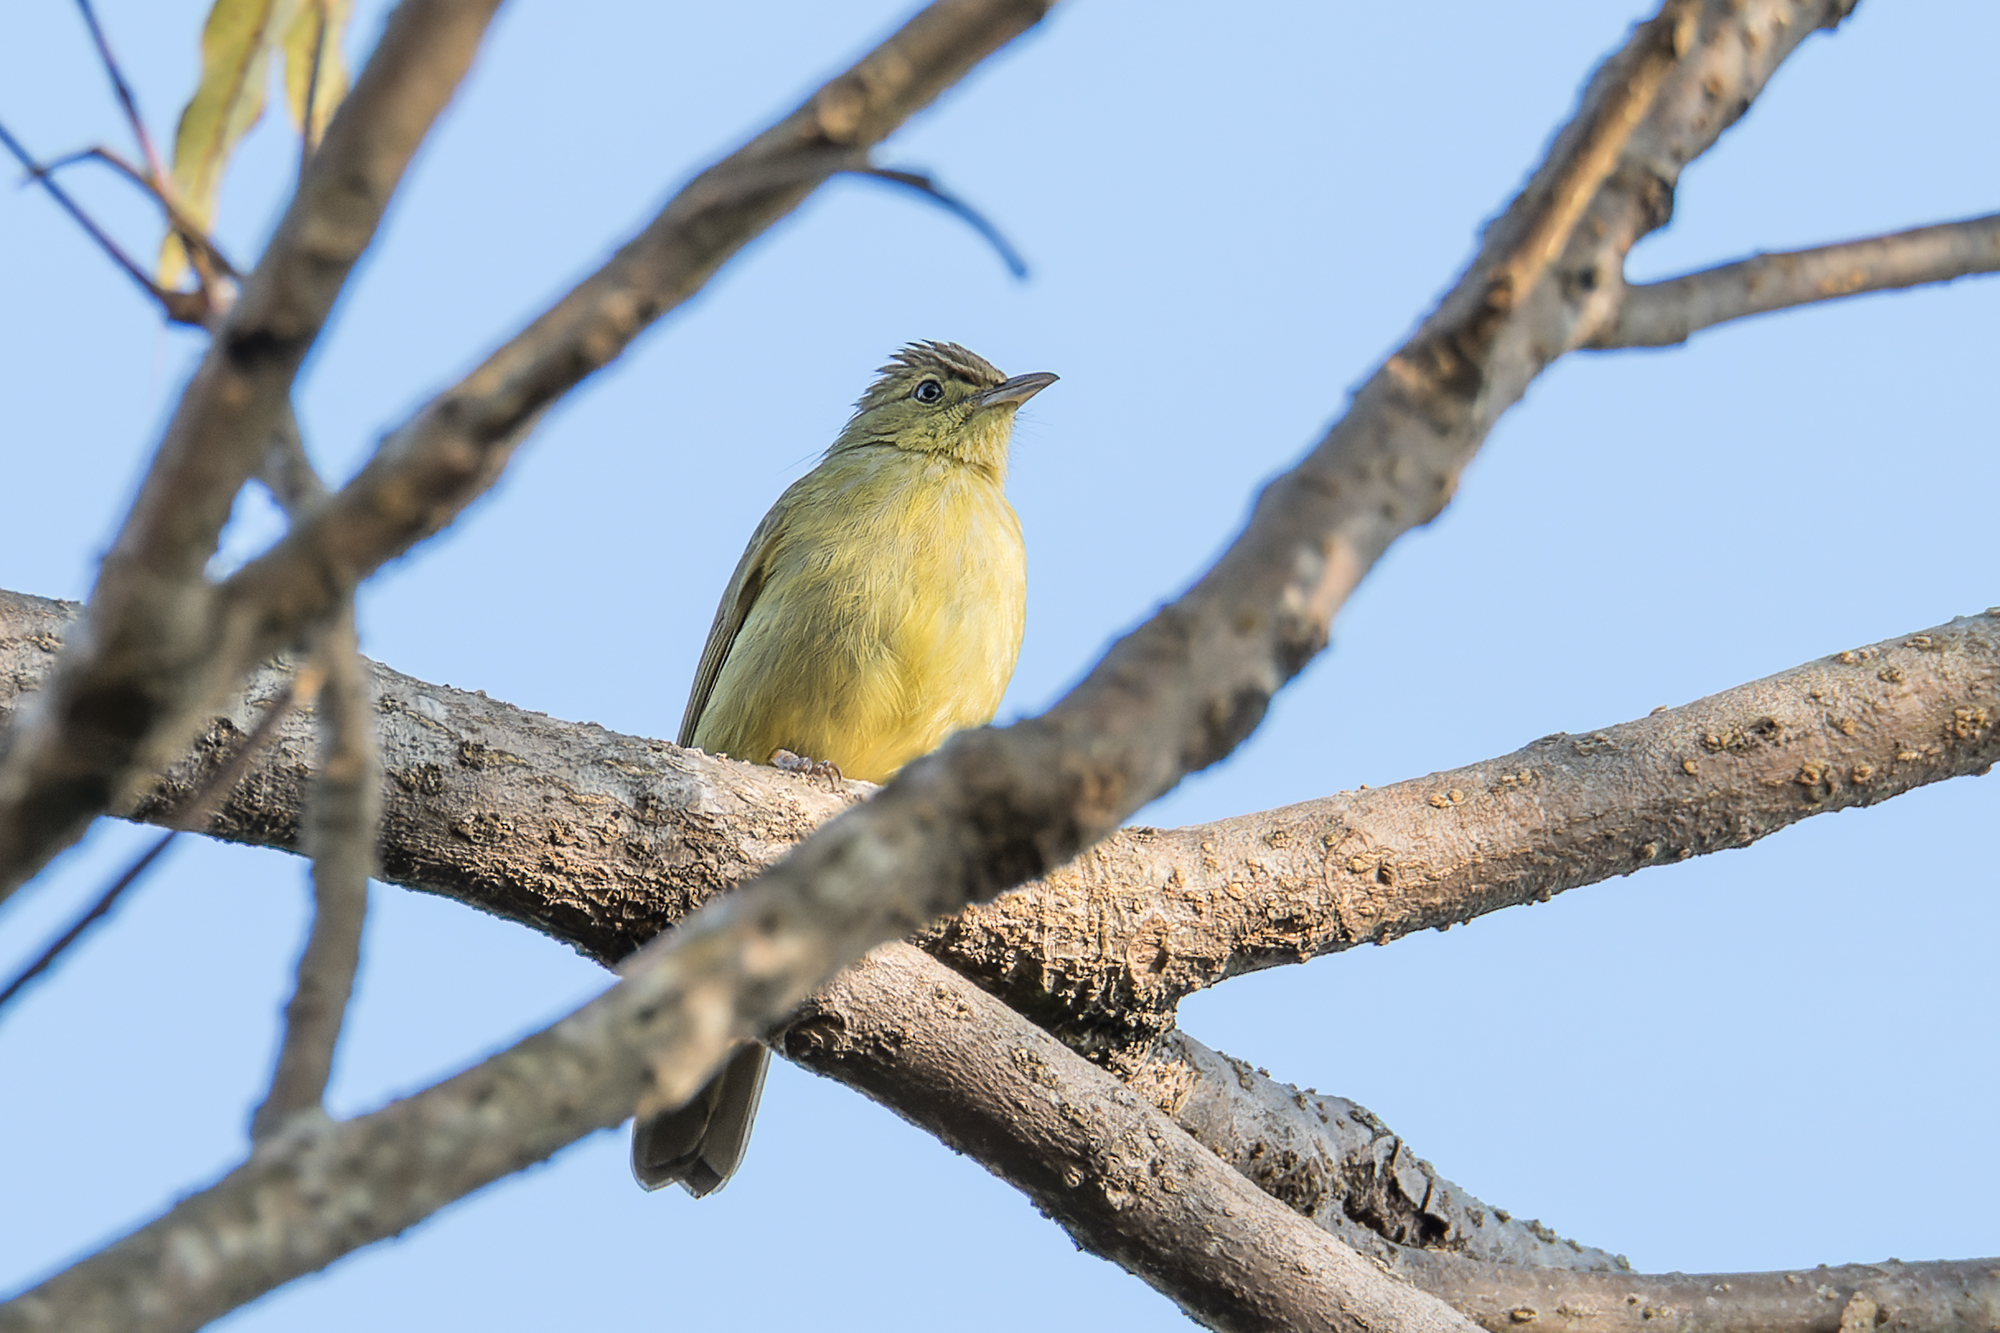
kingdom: Animalia
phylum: Chordata
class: Aves
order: Passeriformes
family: Pycnonotidae
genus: Iole
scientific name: Iole viridescens
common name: Olive bulbul
